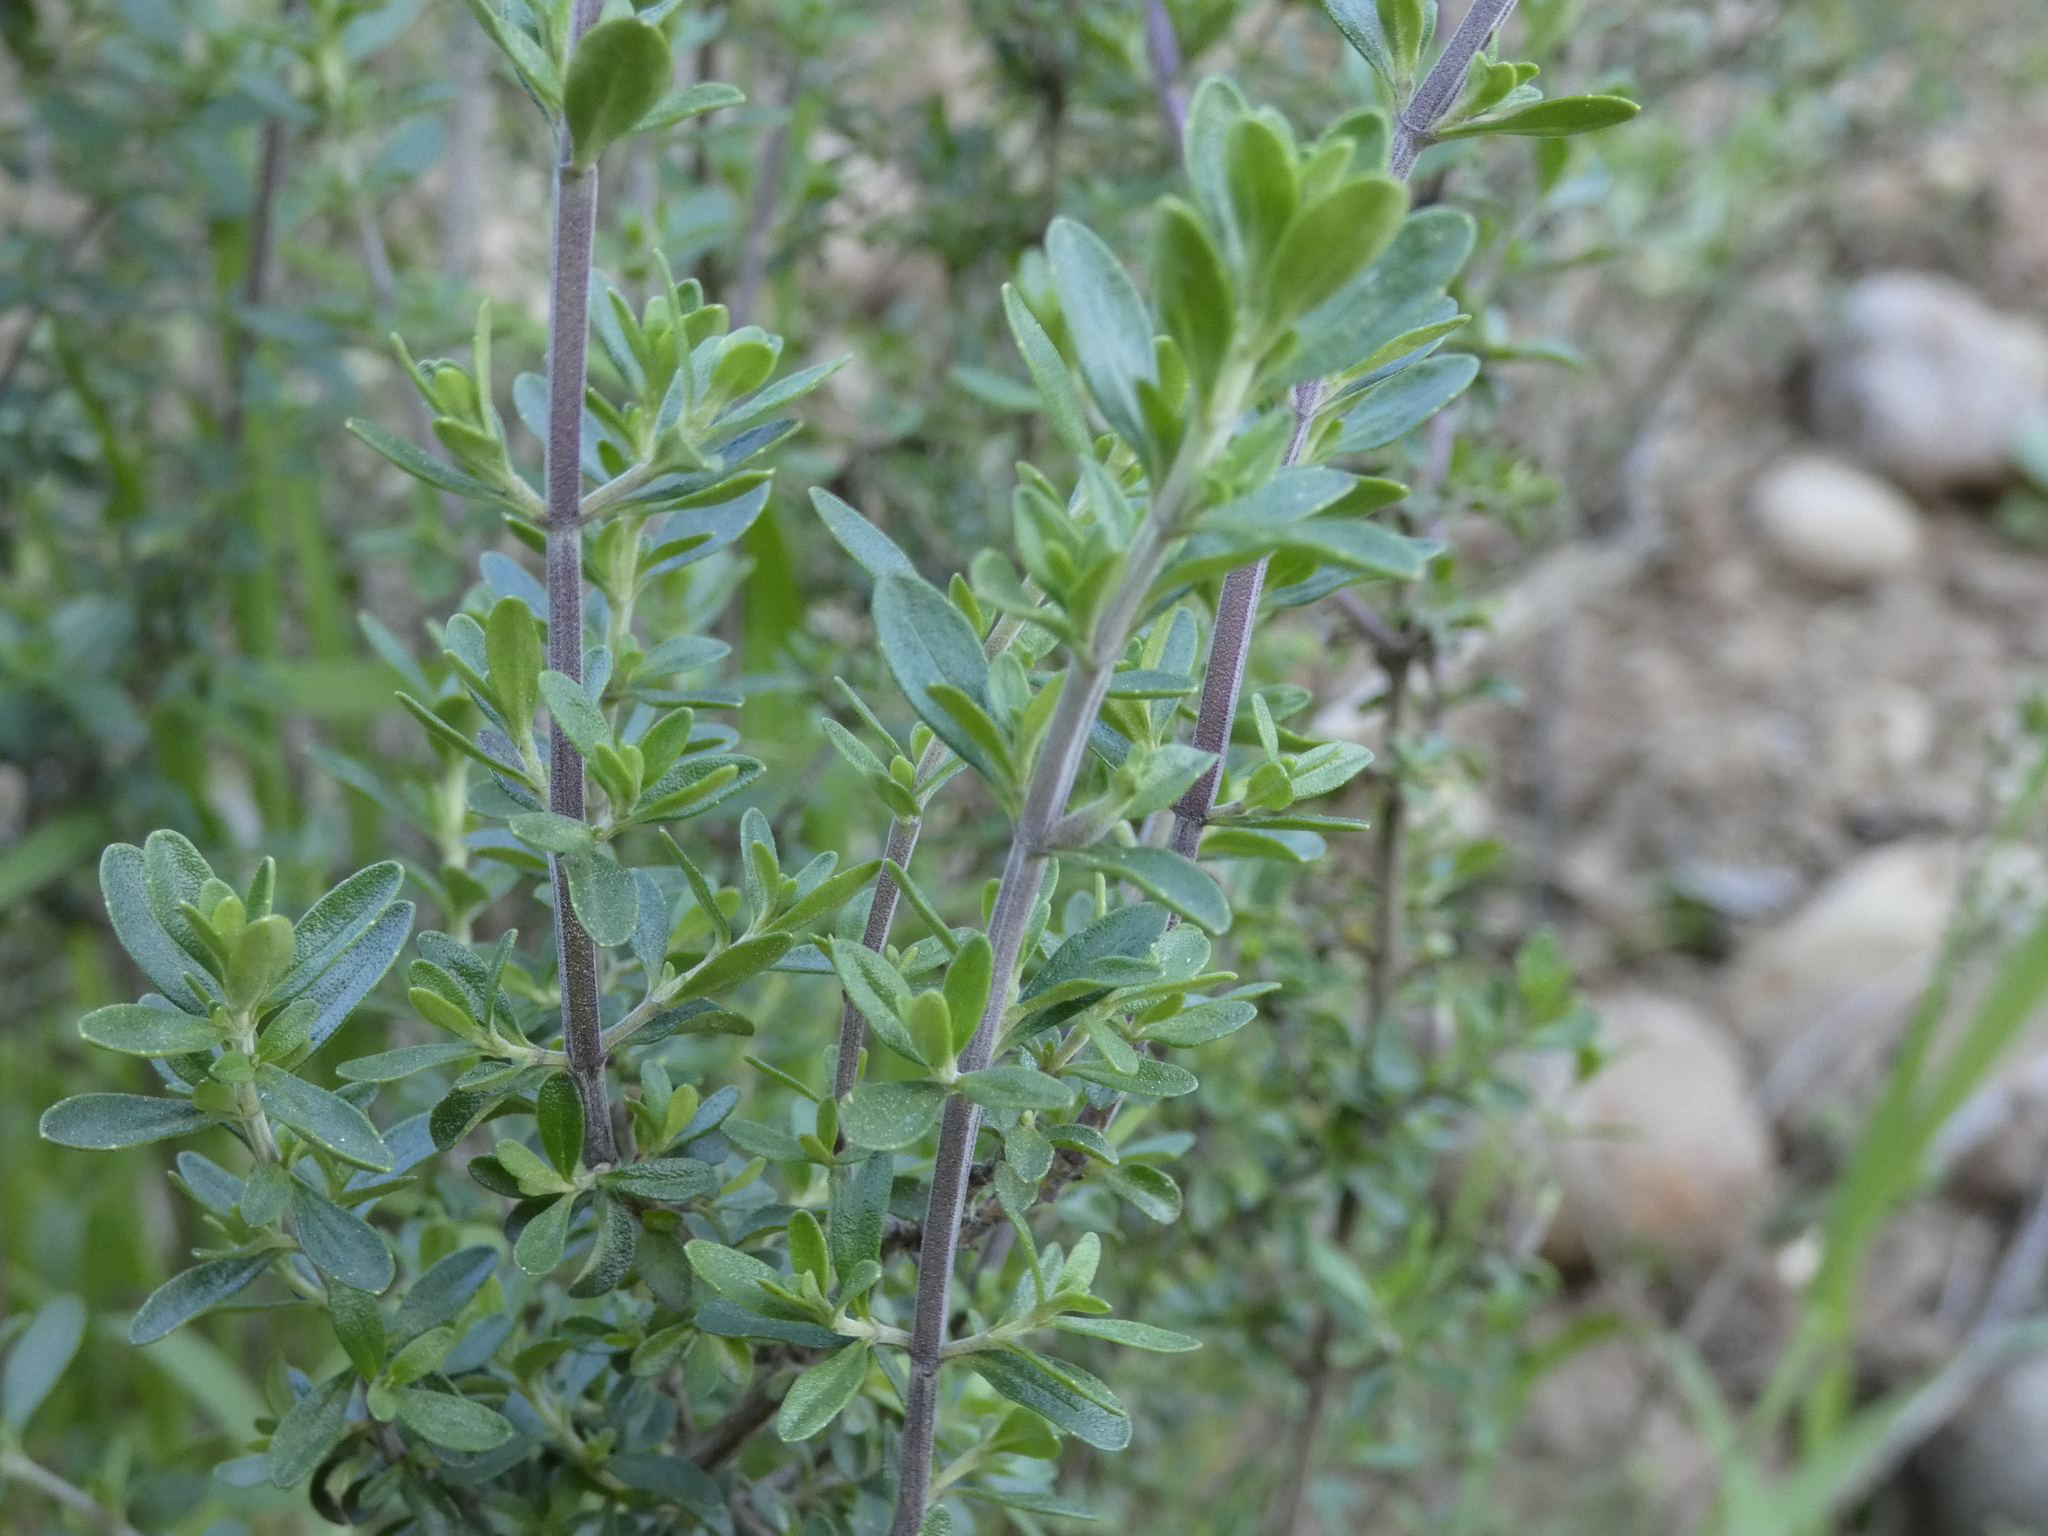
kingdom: Plantae
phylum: Tracheophyta
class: Magnoliopsida
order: Lamiales
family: Lamiaceae
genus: Clinopodium
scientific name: Clinopodium chilense
